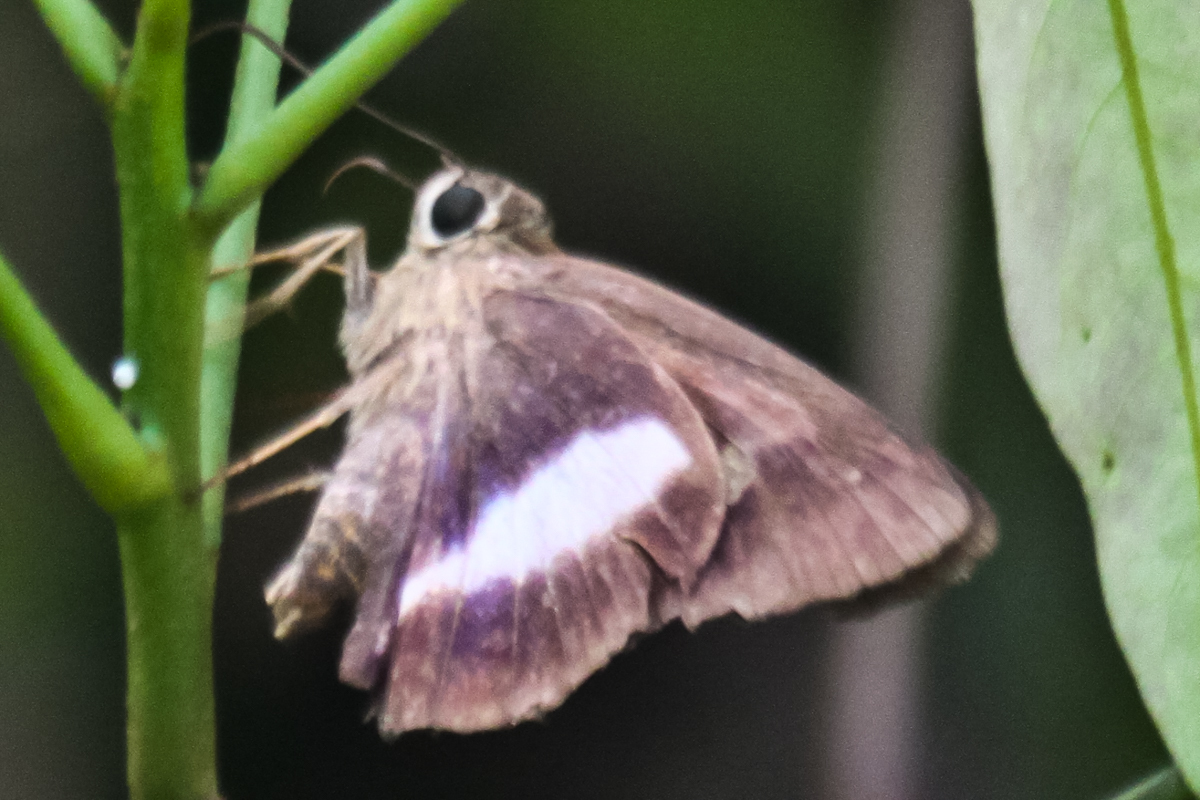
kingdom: Animalia
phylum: Arthropoda
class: Insecta
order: Lepidoptera
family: Hesperiidae
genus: Hasora
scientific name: Hasora leucospila
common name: Violet awl
